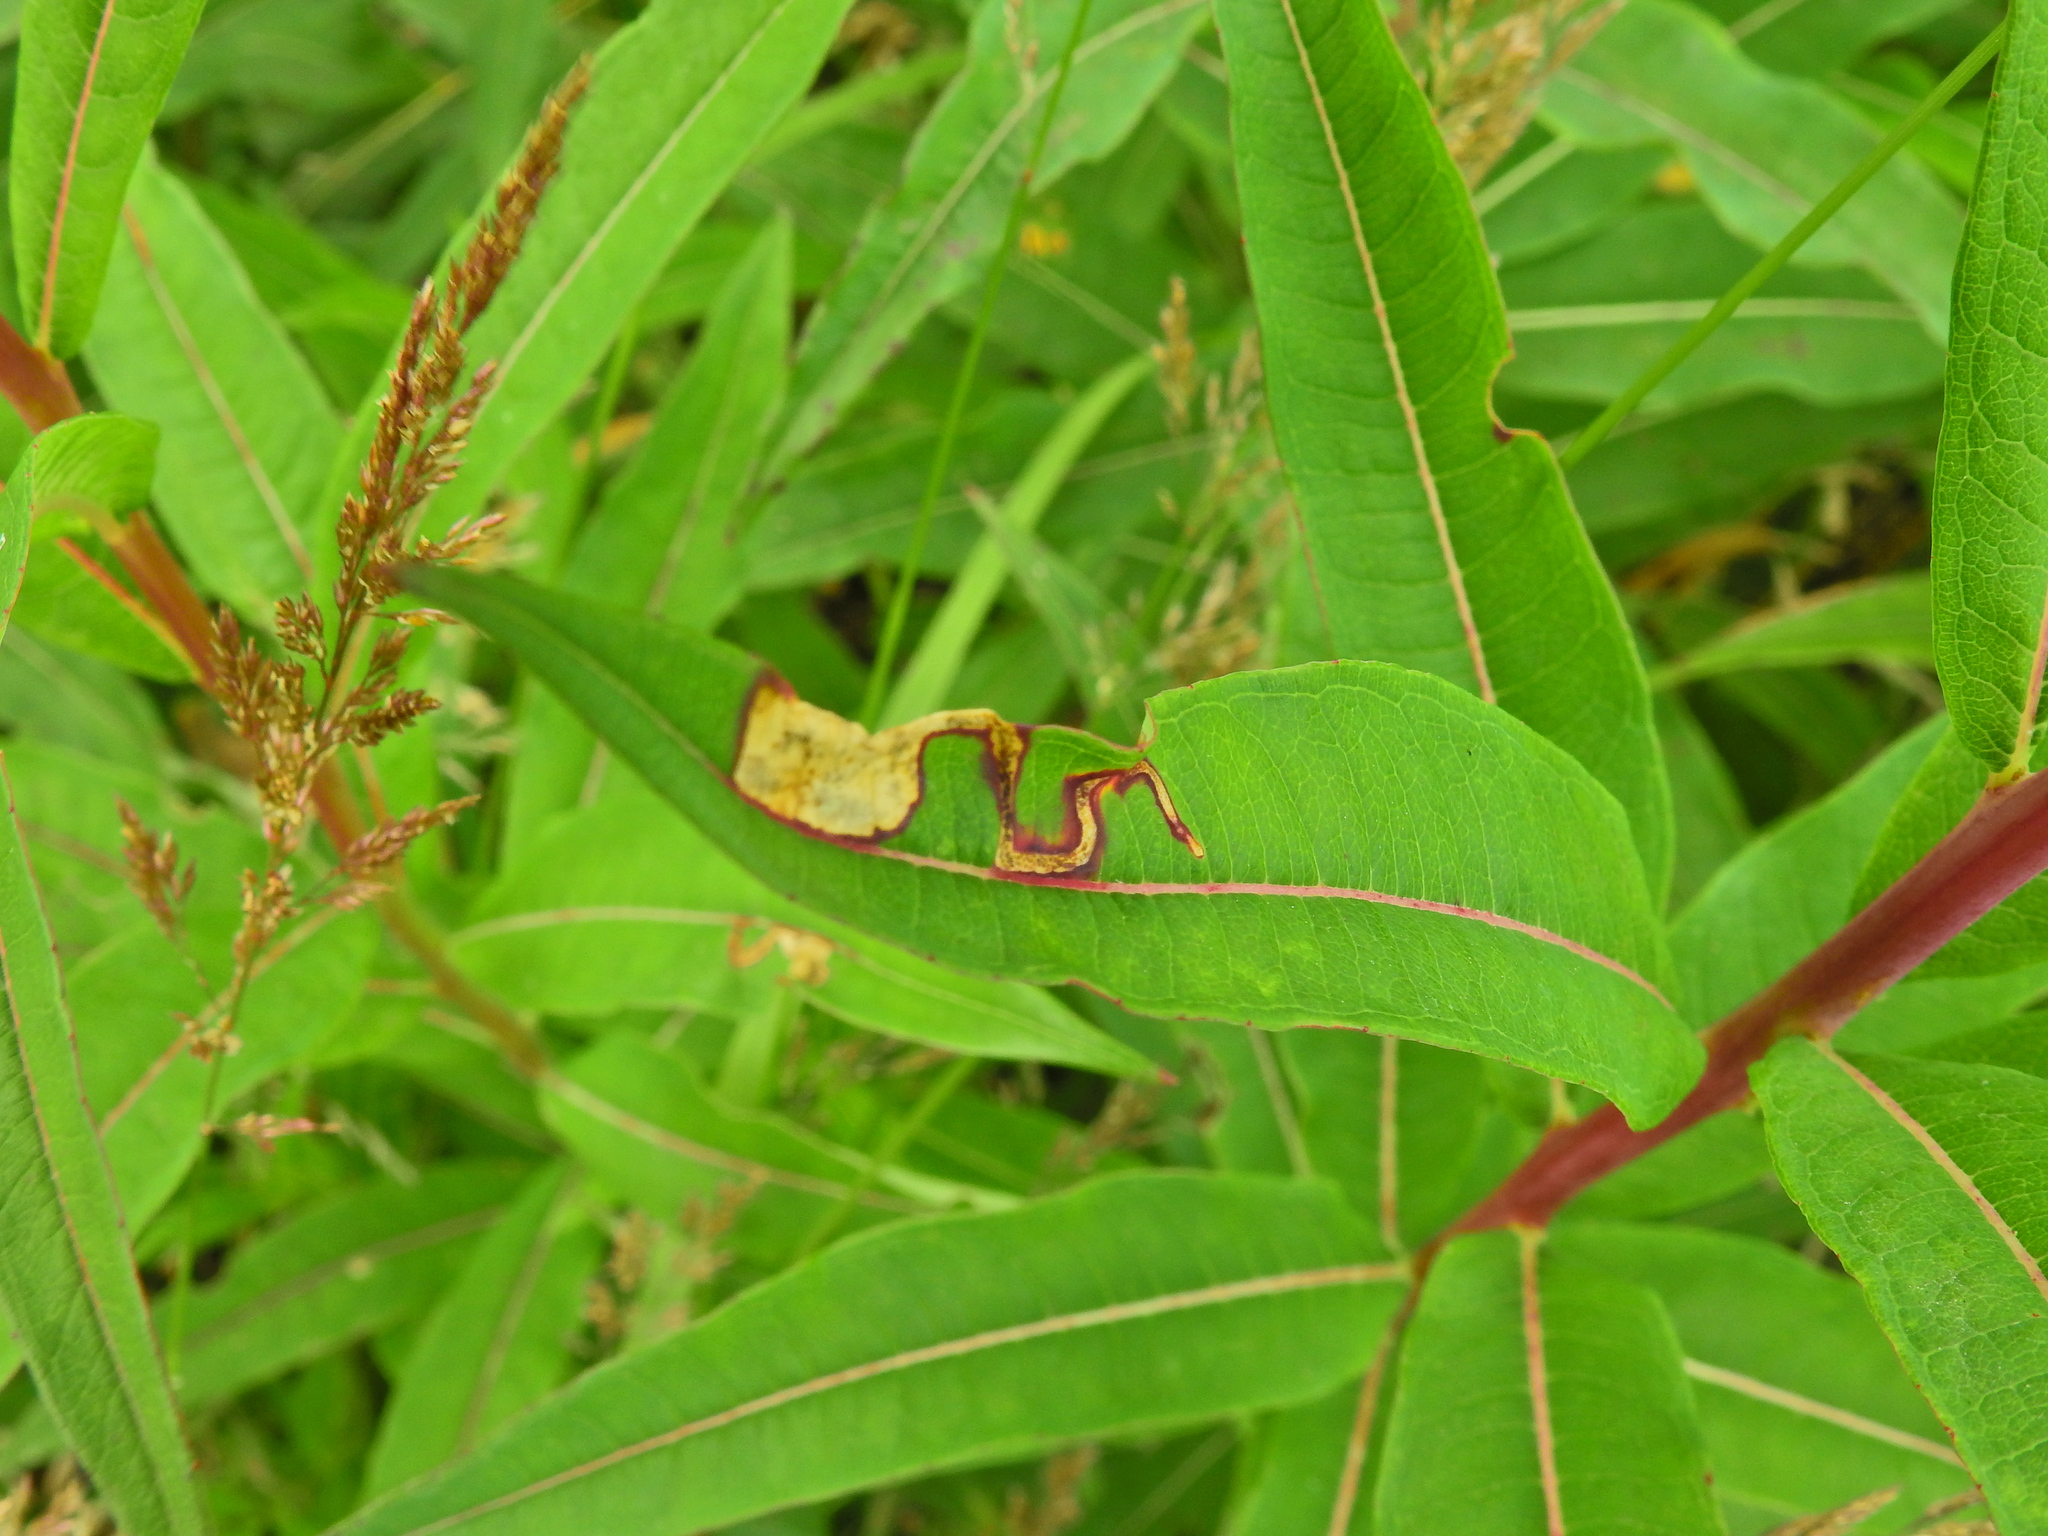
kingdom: Animalia
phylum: Arthropoda
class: Insecta
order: Lepidoptera
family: Momphidae
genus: Mompha
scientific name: Mompha raschkiella
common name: Little cosmet
